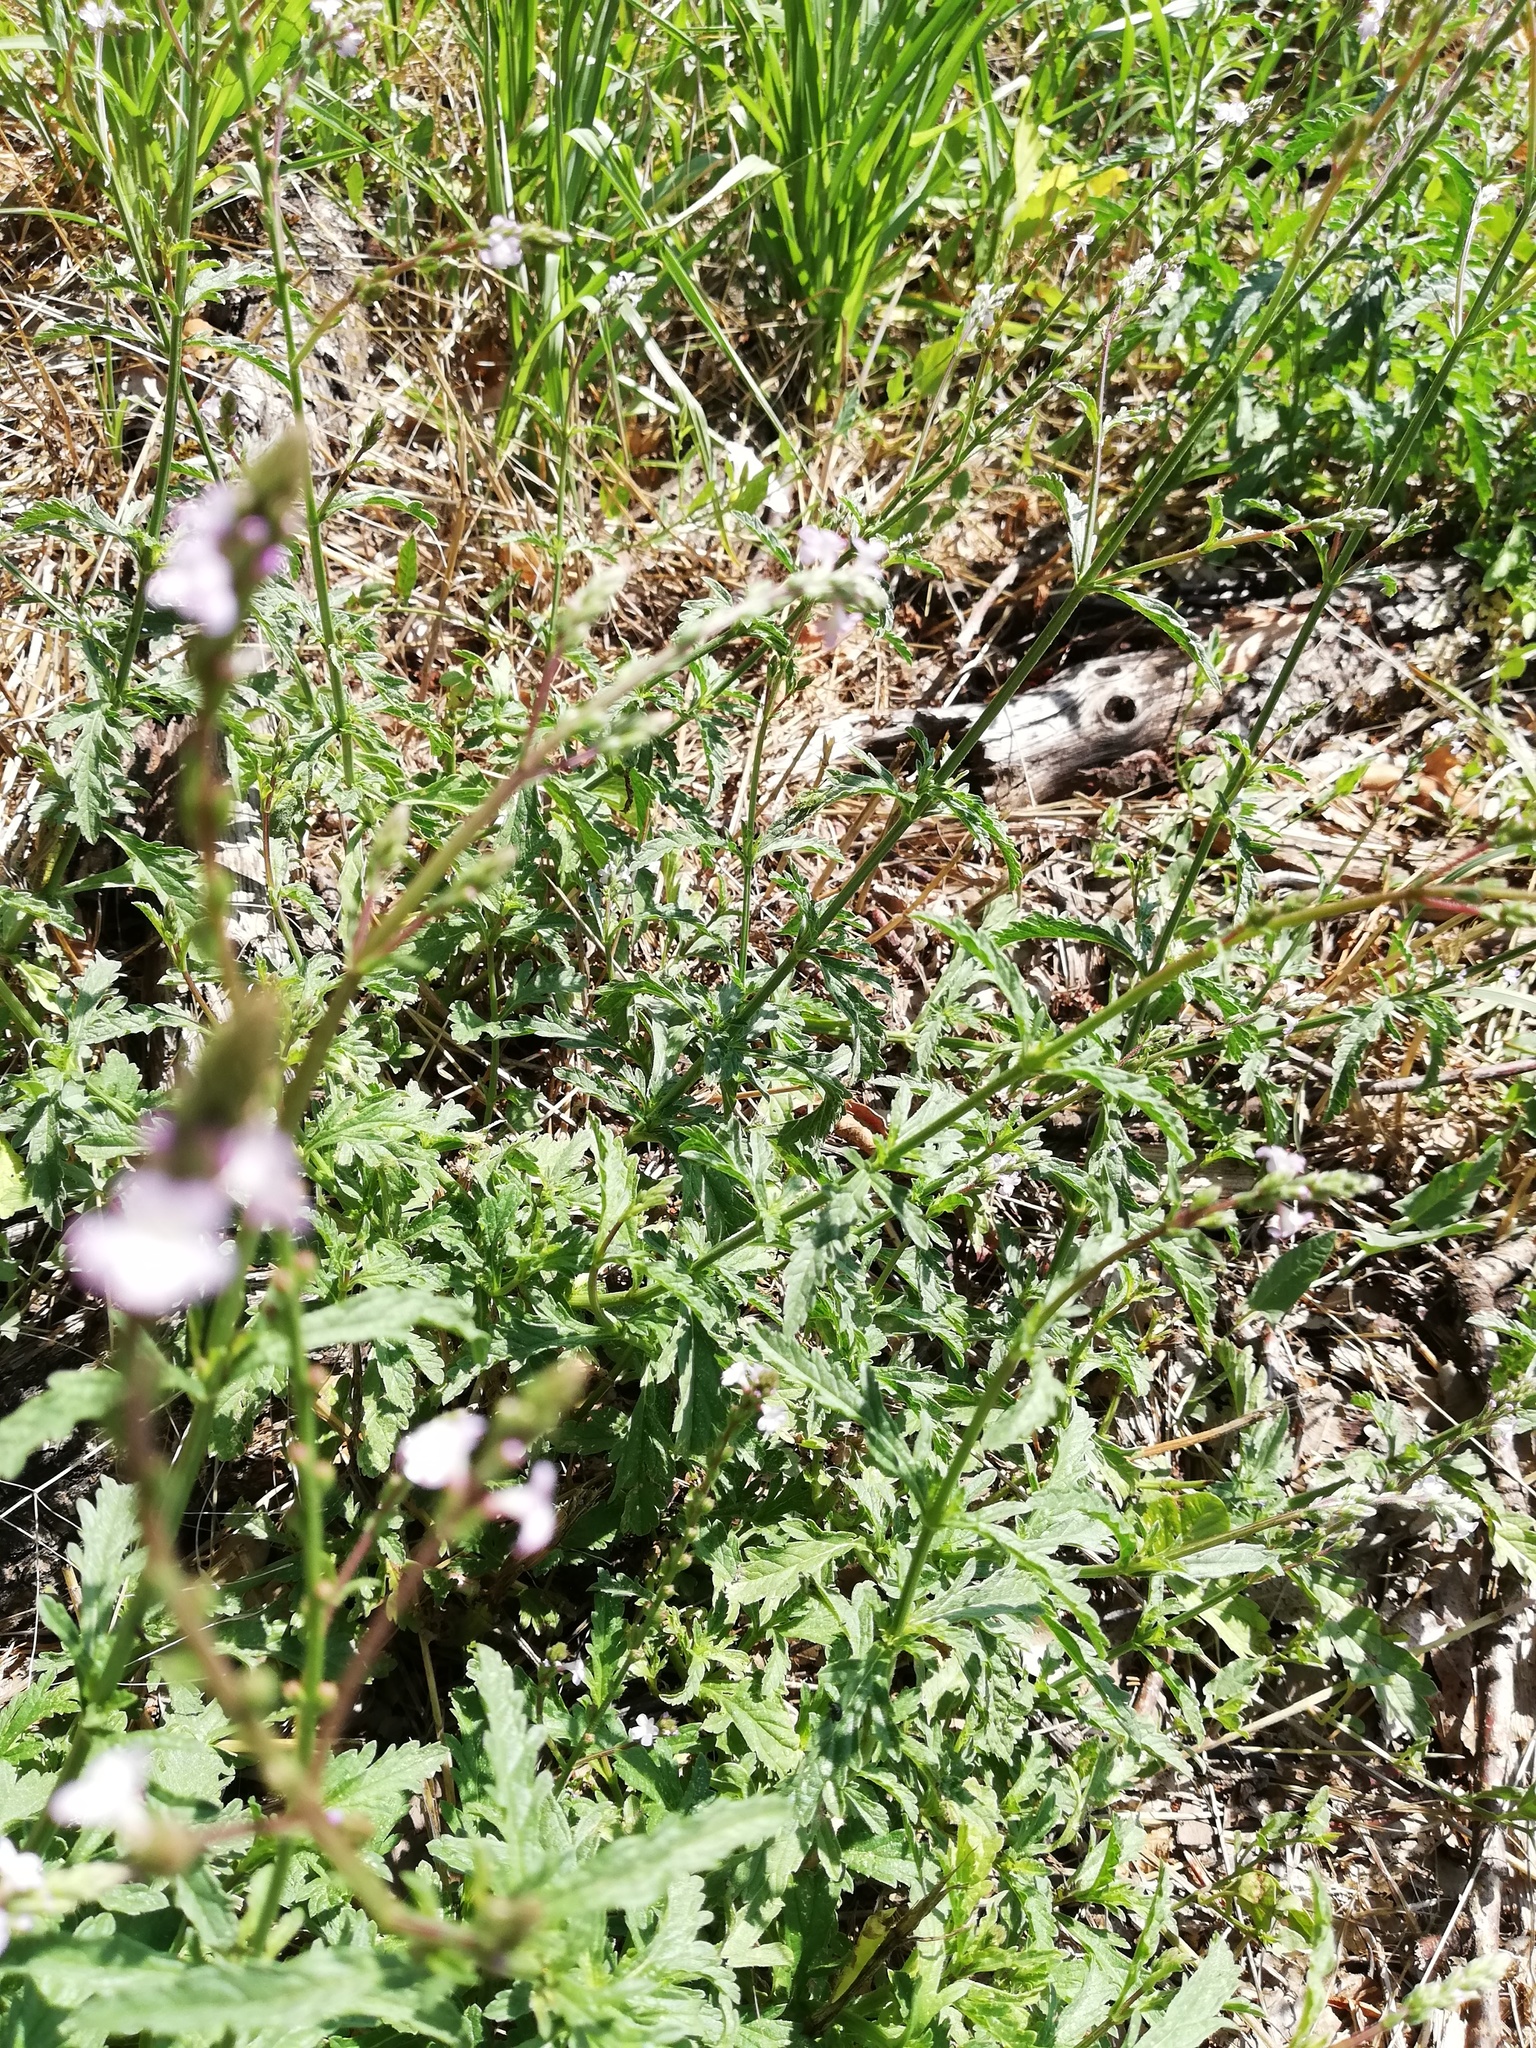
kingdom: Plantae
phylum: Tracheophyta
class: Magnoliopsida
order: Lamiales
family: Verbenaceae
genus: Verbena
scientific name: Verbena officinalis
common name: Vervain
